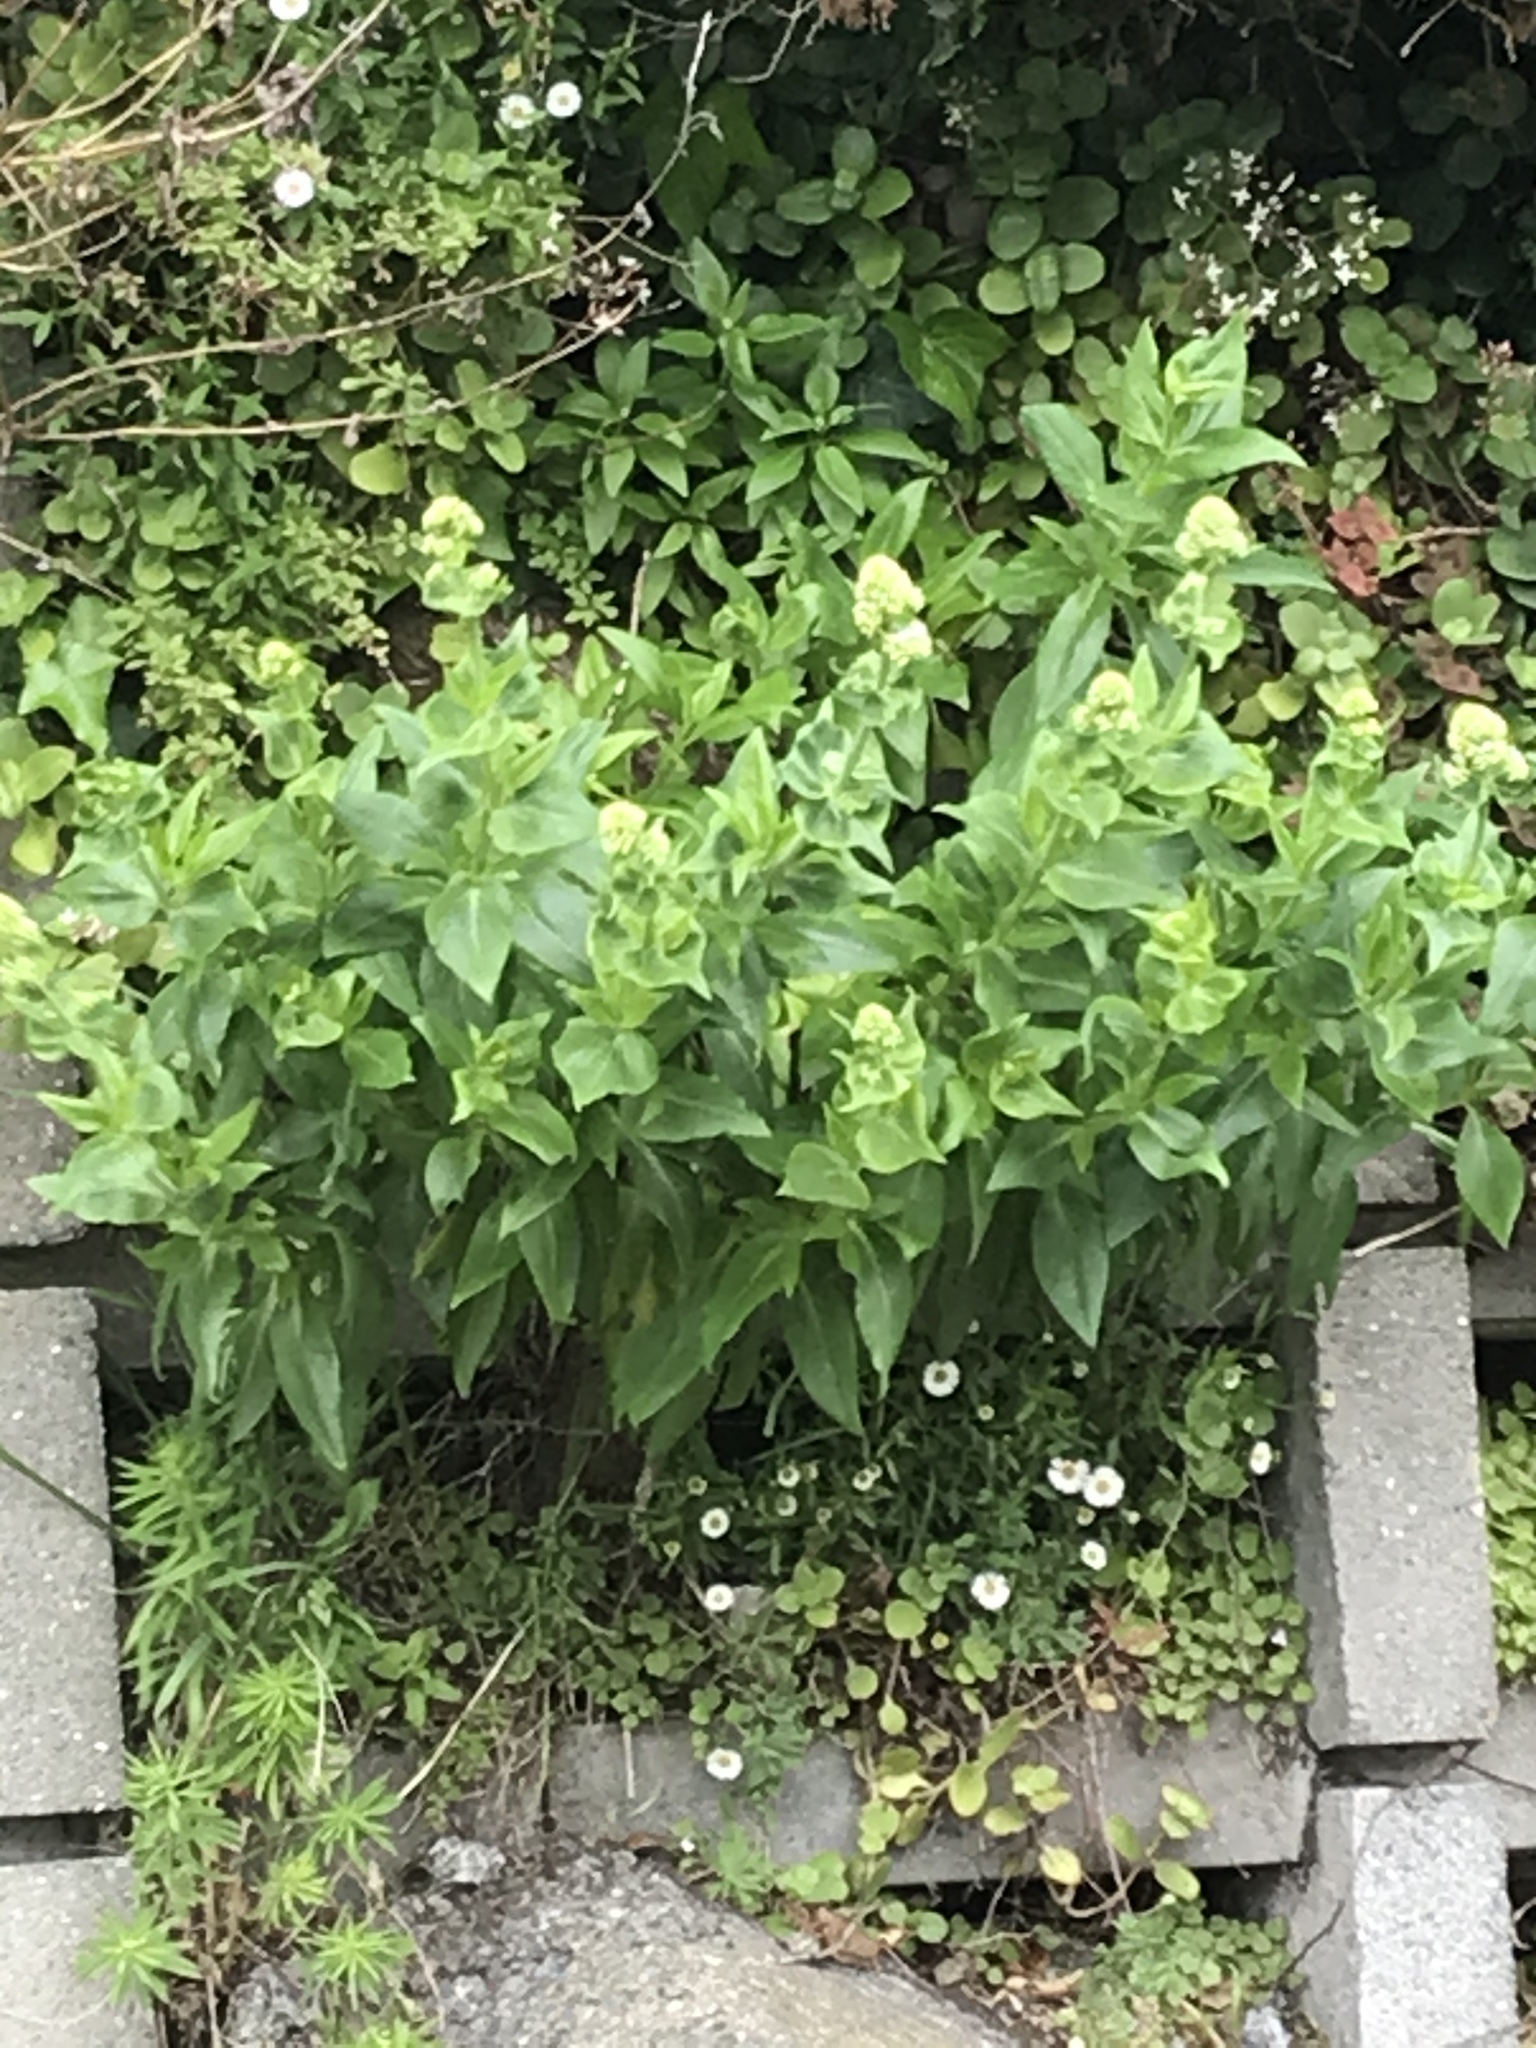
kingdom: Plantae
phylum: Tracheophyta
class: Magnoliopsida
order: Dipsacales
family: Caprifoliaceae
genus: Centranthus
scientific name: Centranthus ruber
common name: Red valerian
